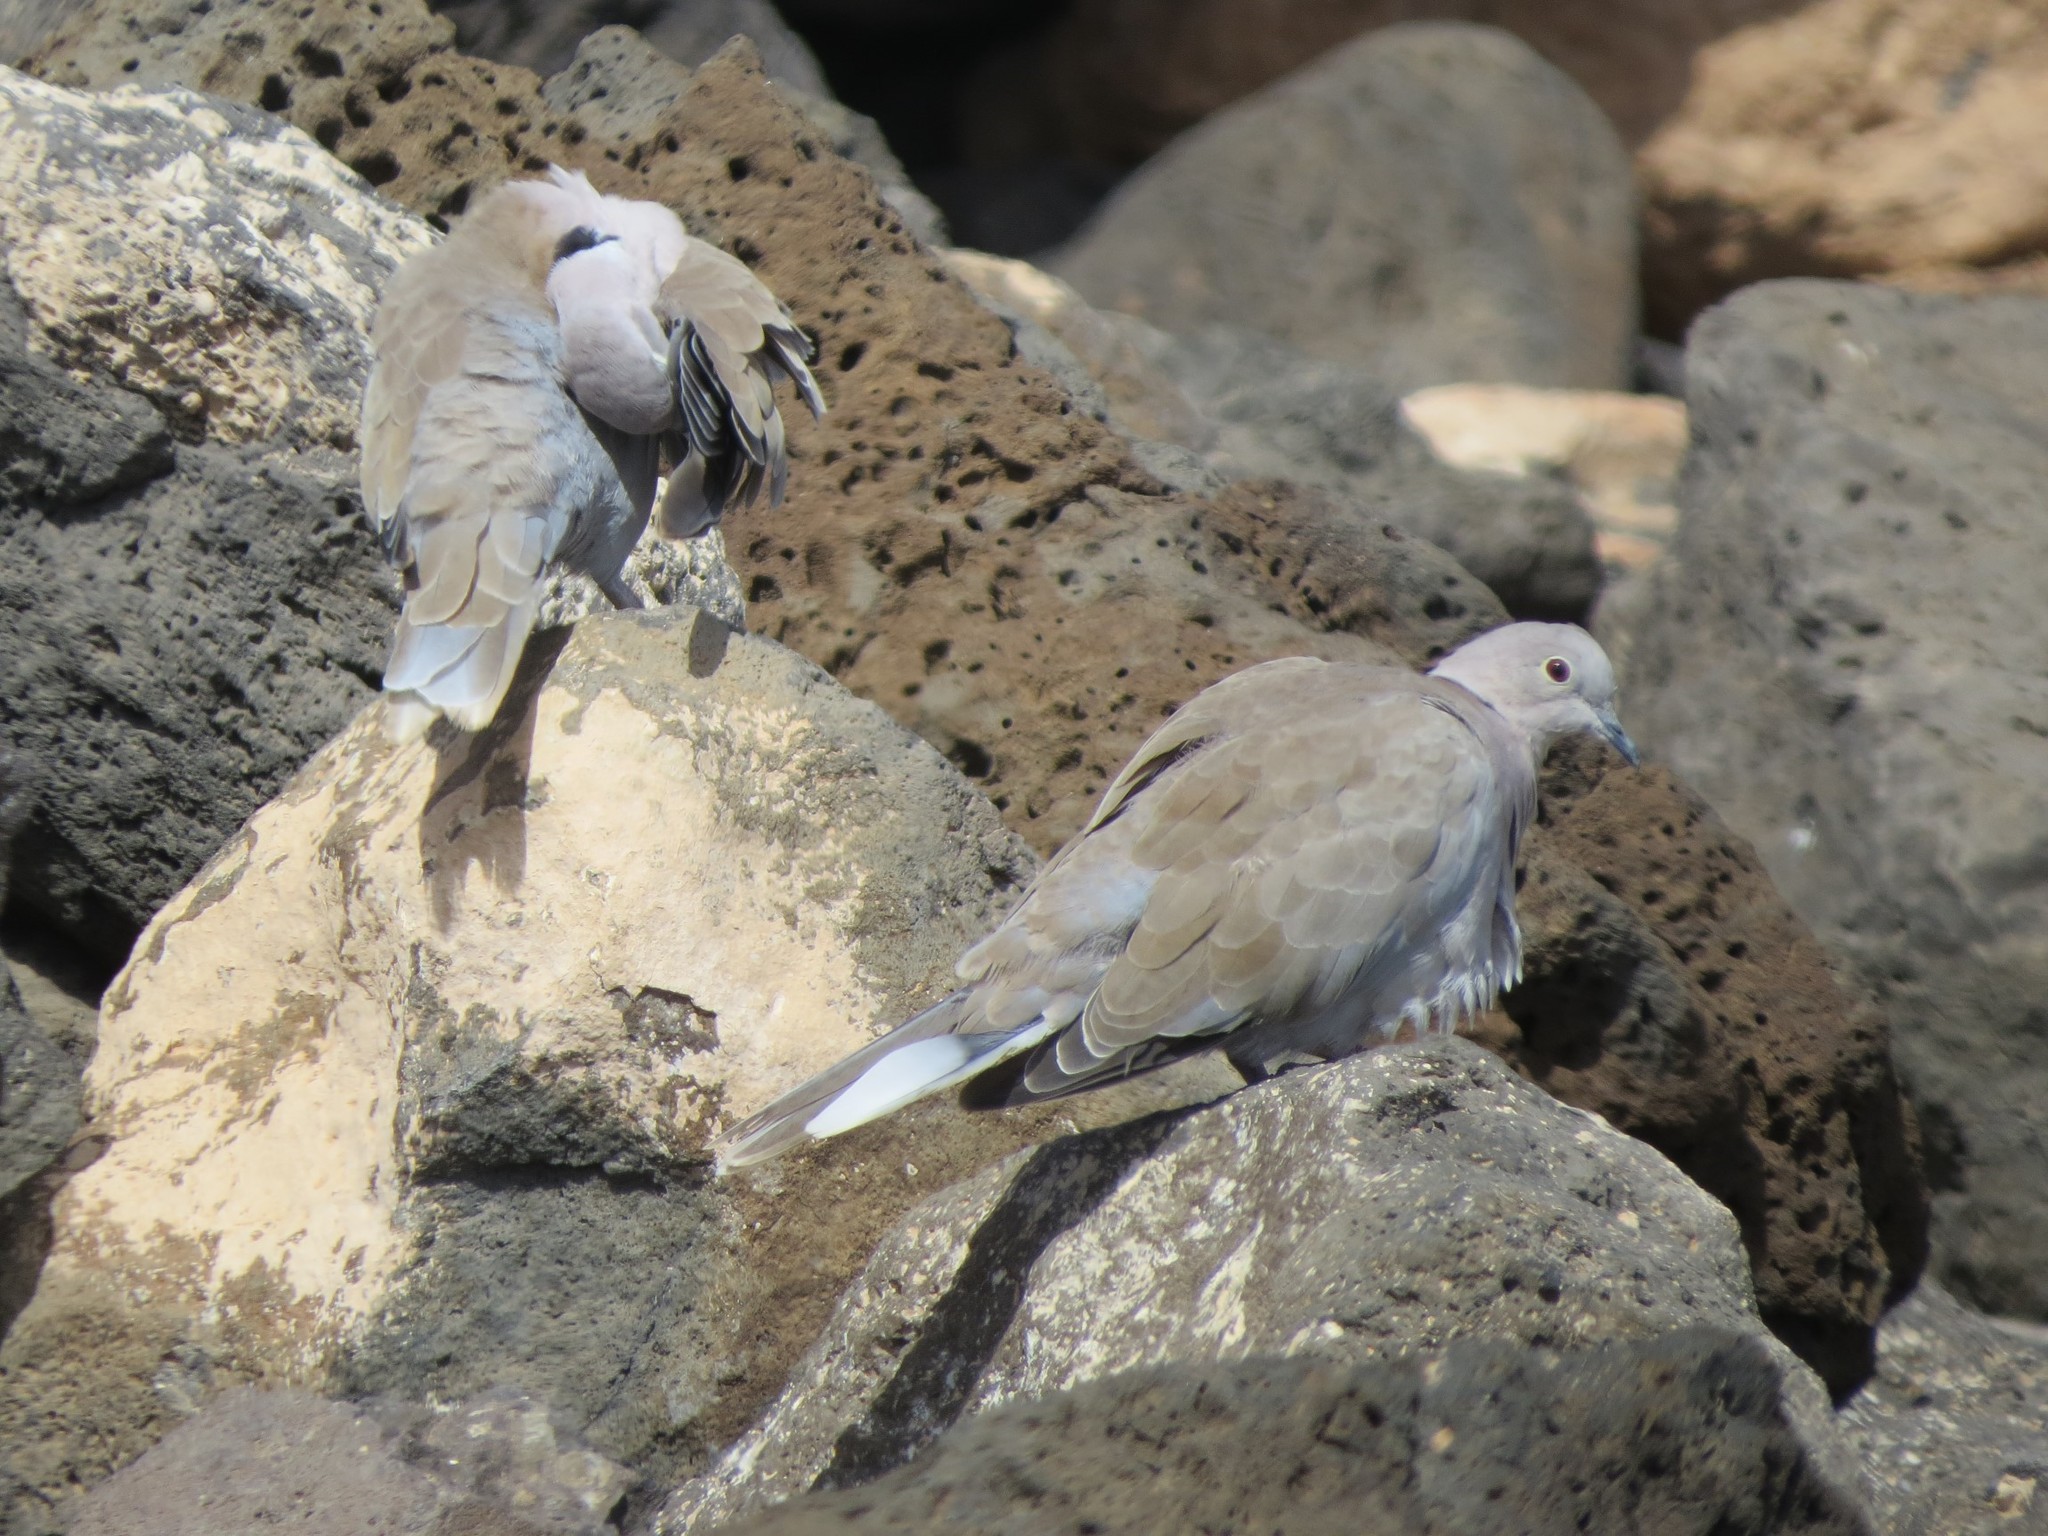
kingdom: Animalia
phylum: Chordata
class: Aves
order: Columbiformes
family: Columbidae
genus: Streptopelia
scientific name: Streptopelia decaocto
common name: Eurasian collared dove
